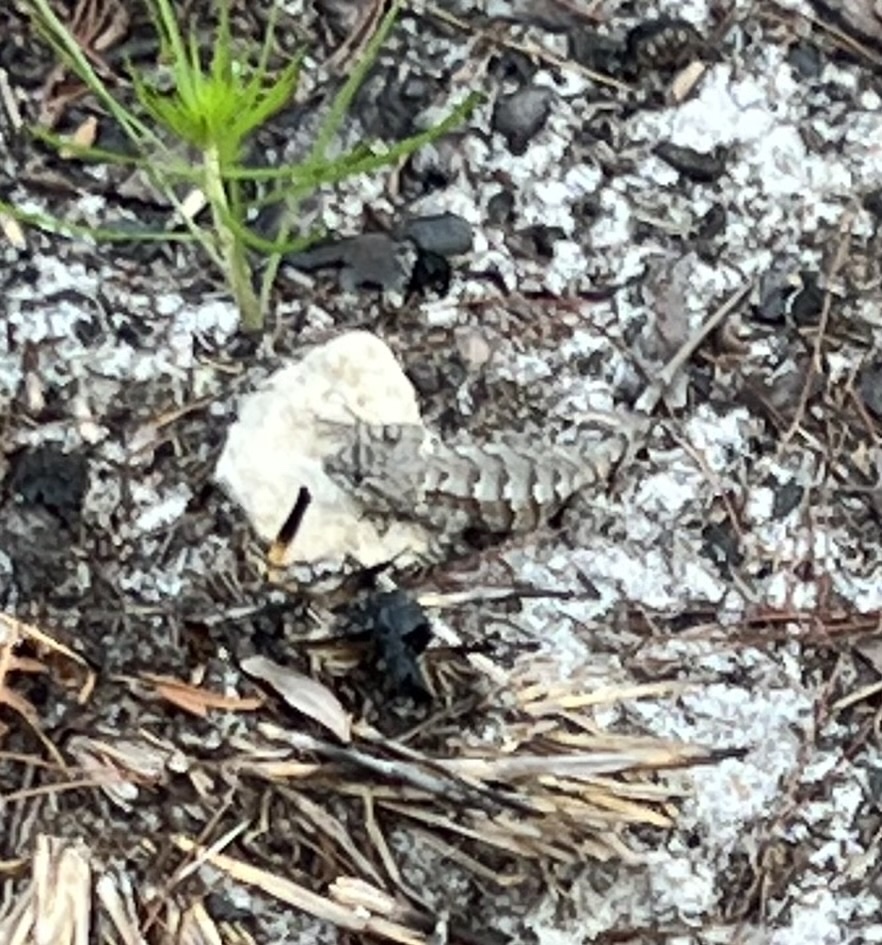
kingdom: Animalia
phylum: Chordata
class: Squamata
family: Phrynosomatidae
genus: Sceloporus
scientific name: Sceloporus undulatus
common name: Eastern fence lizard
